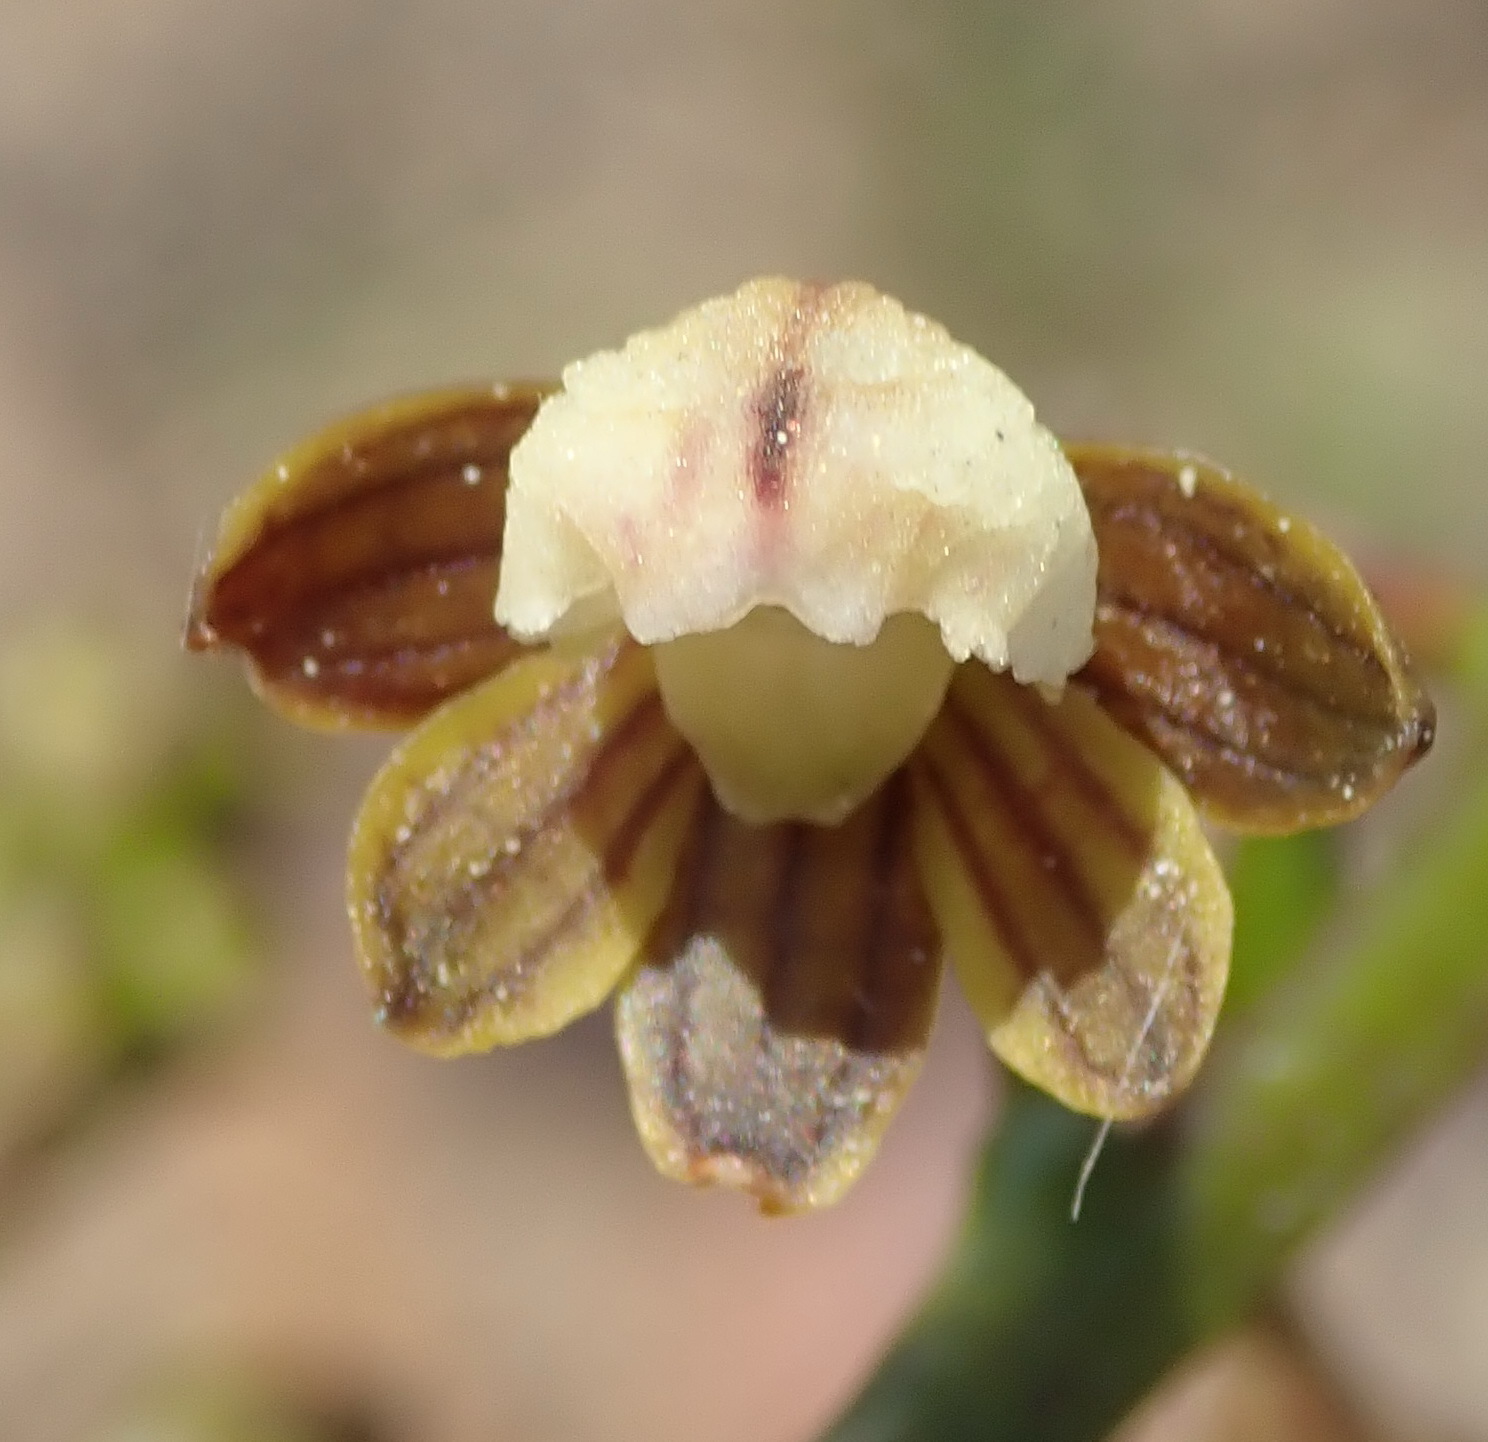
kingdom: Plantae
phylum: Tracheophyta
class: Liliopsida
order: Asparagales
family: Orchidaceae
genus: Eulophia
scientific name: Eulophia cochlearis
